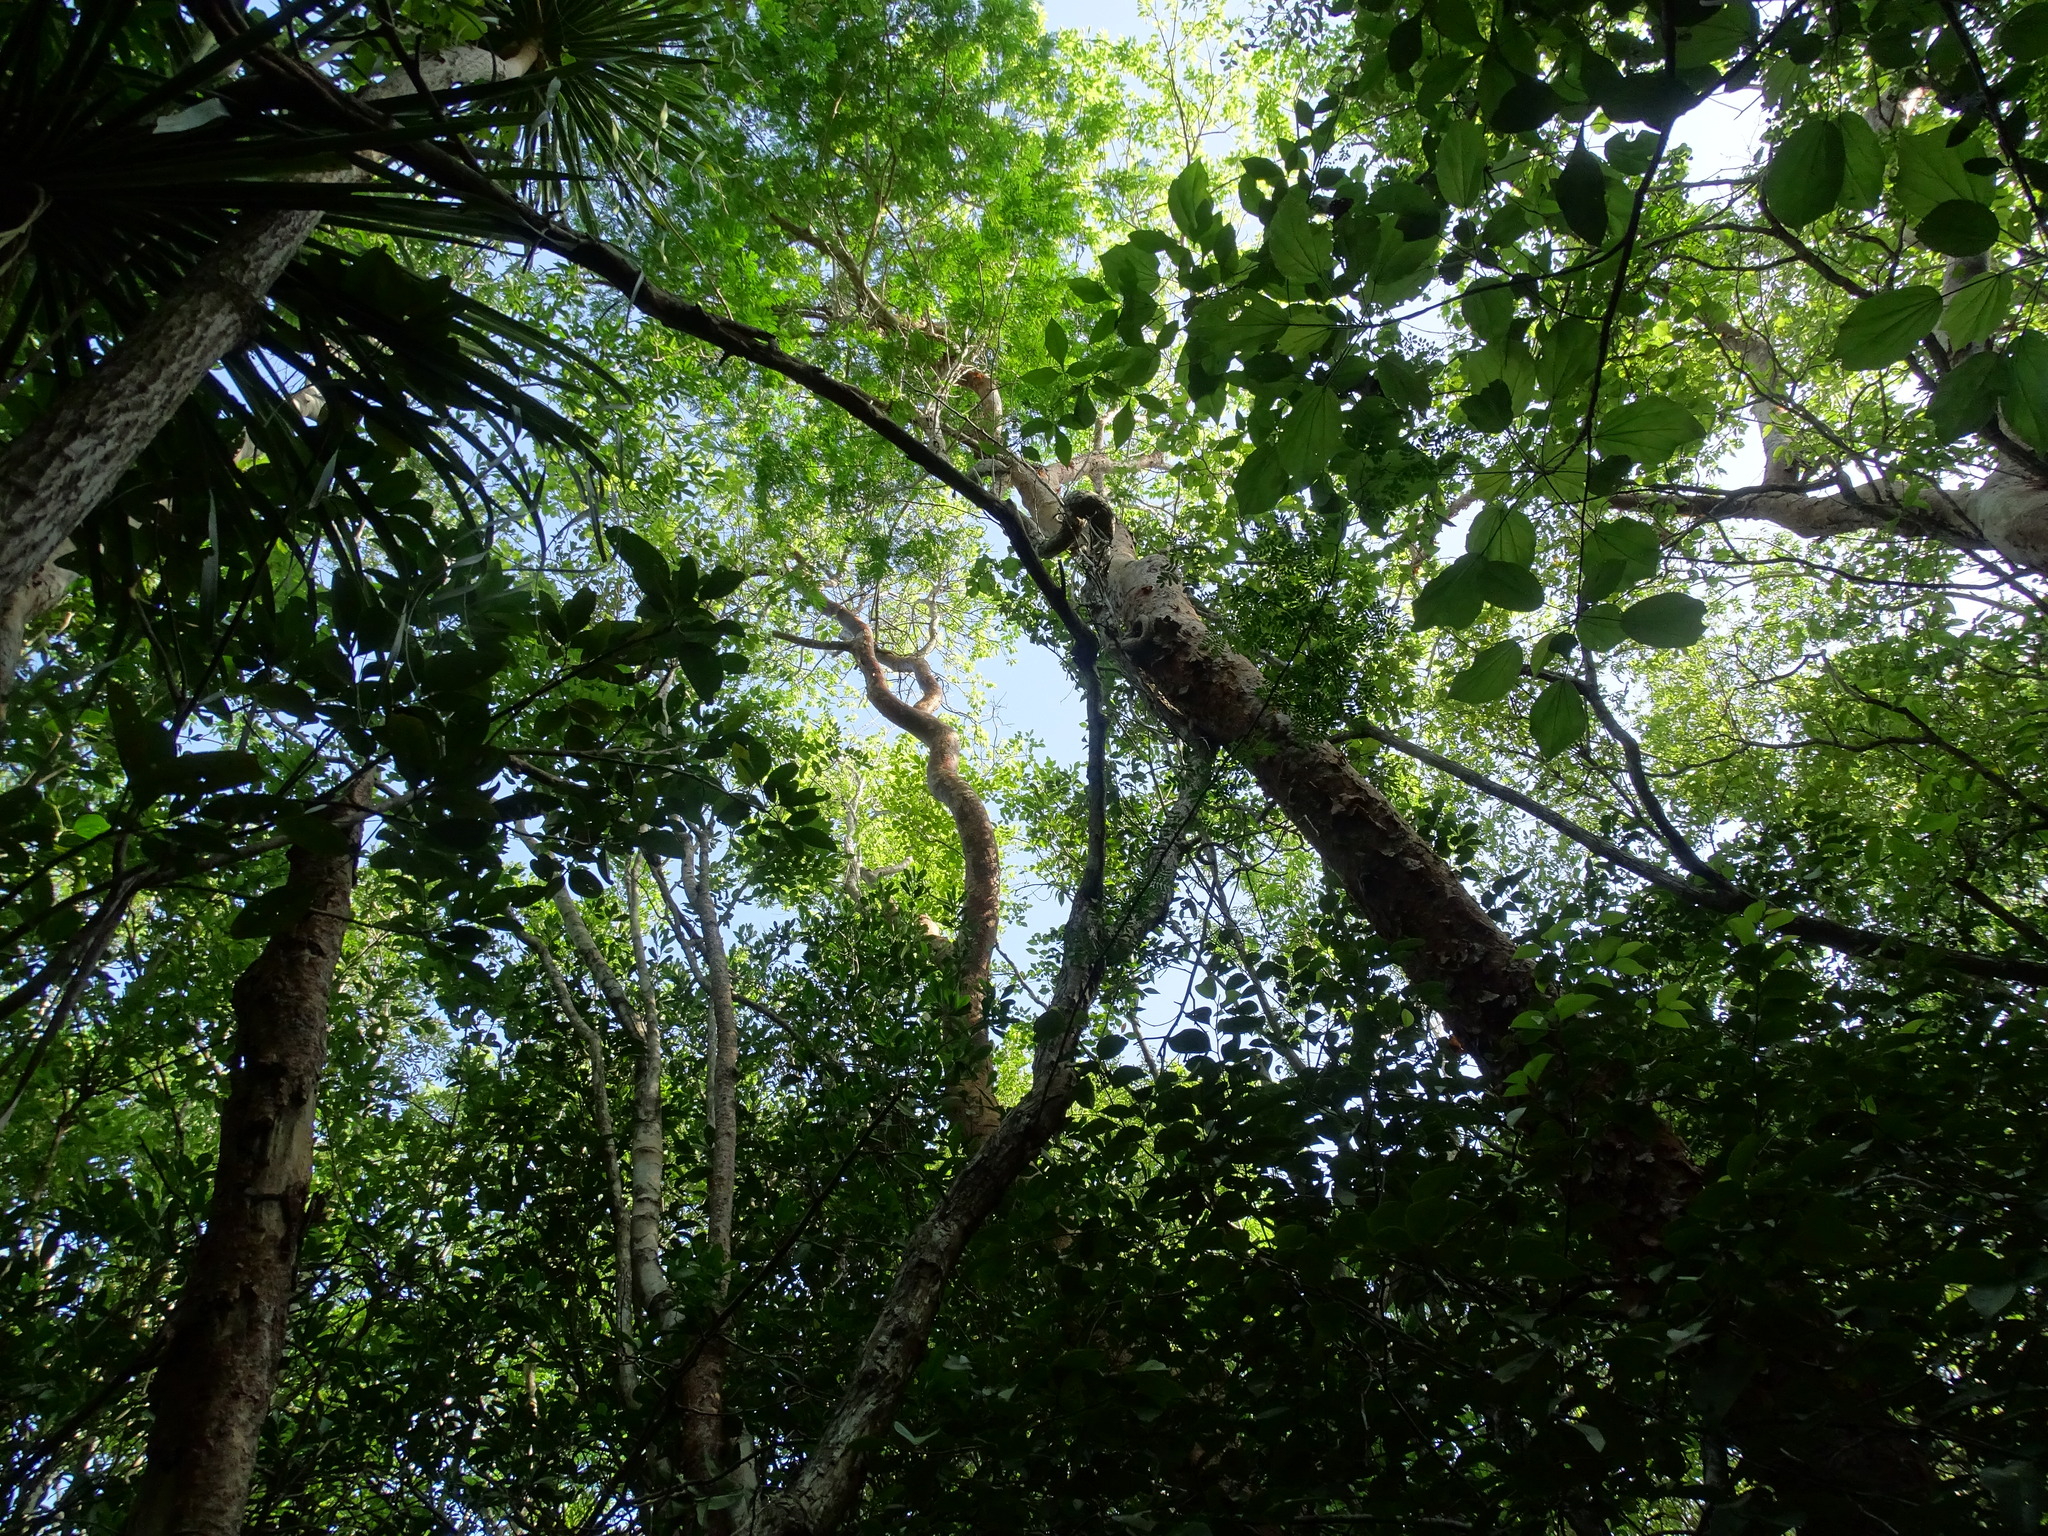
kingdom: Plantae
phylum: Tracheophyta
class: Magnoliopsida
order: Fabales
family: Fabaceae
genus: Havardia
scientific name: Havardia platyloba
